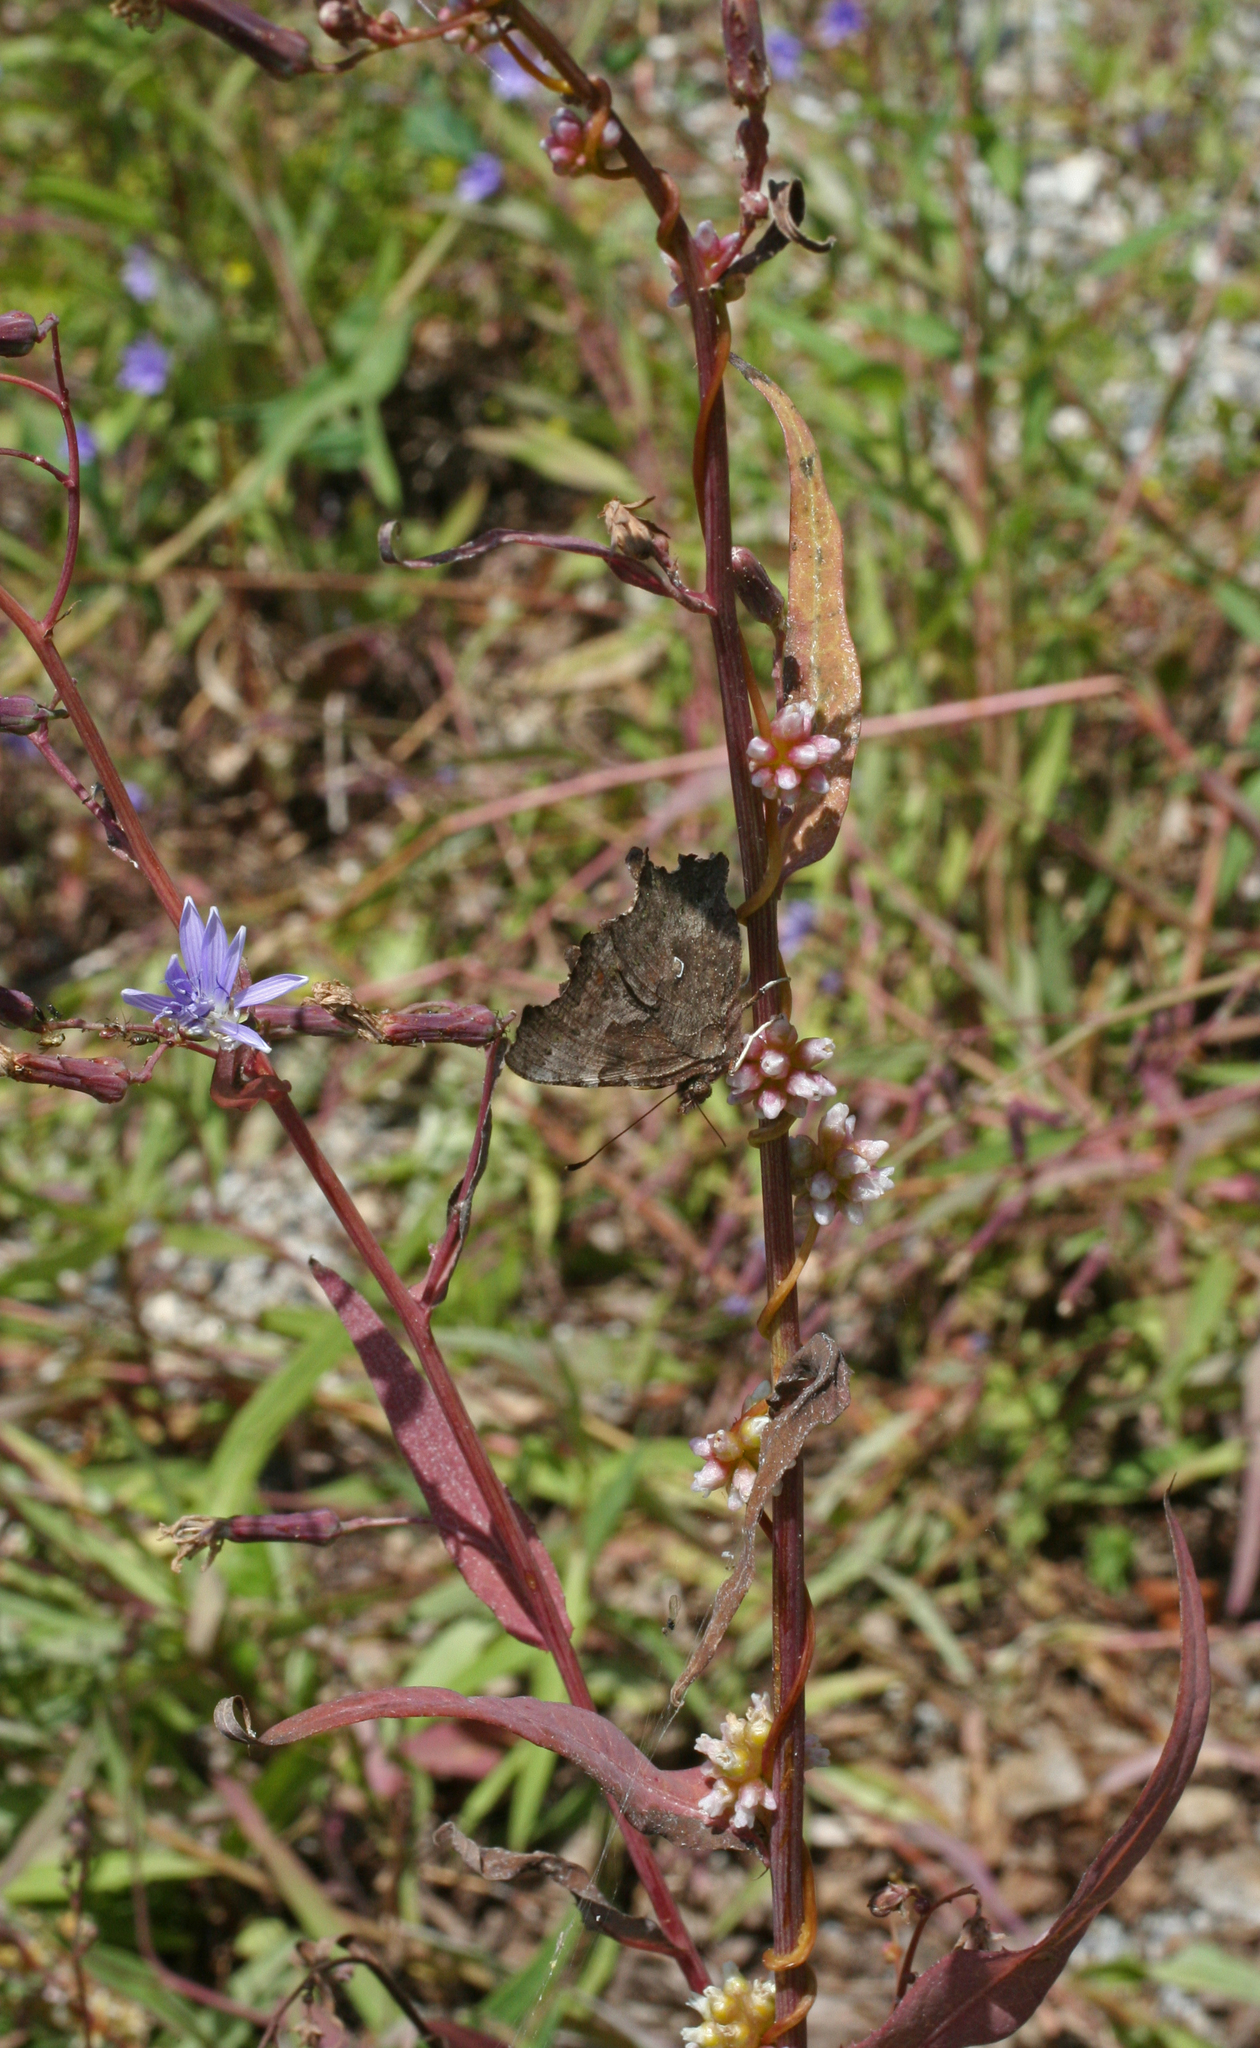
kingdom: Plantae
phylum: Tracheophyta
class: Magnoliopsida
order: Asterales
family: Asteraceae
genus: Lactuca
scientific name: Lactuca tatarica
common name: Blue lettuce
